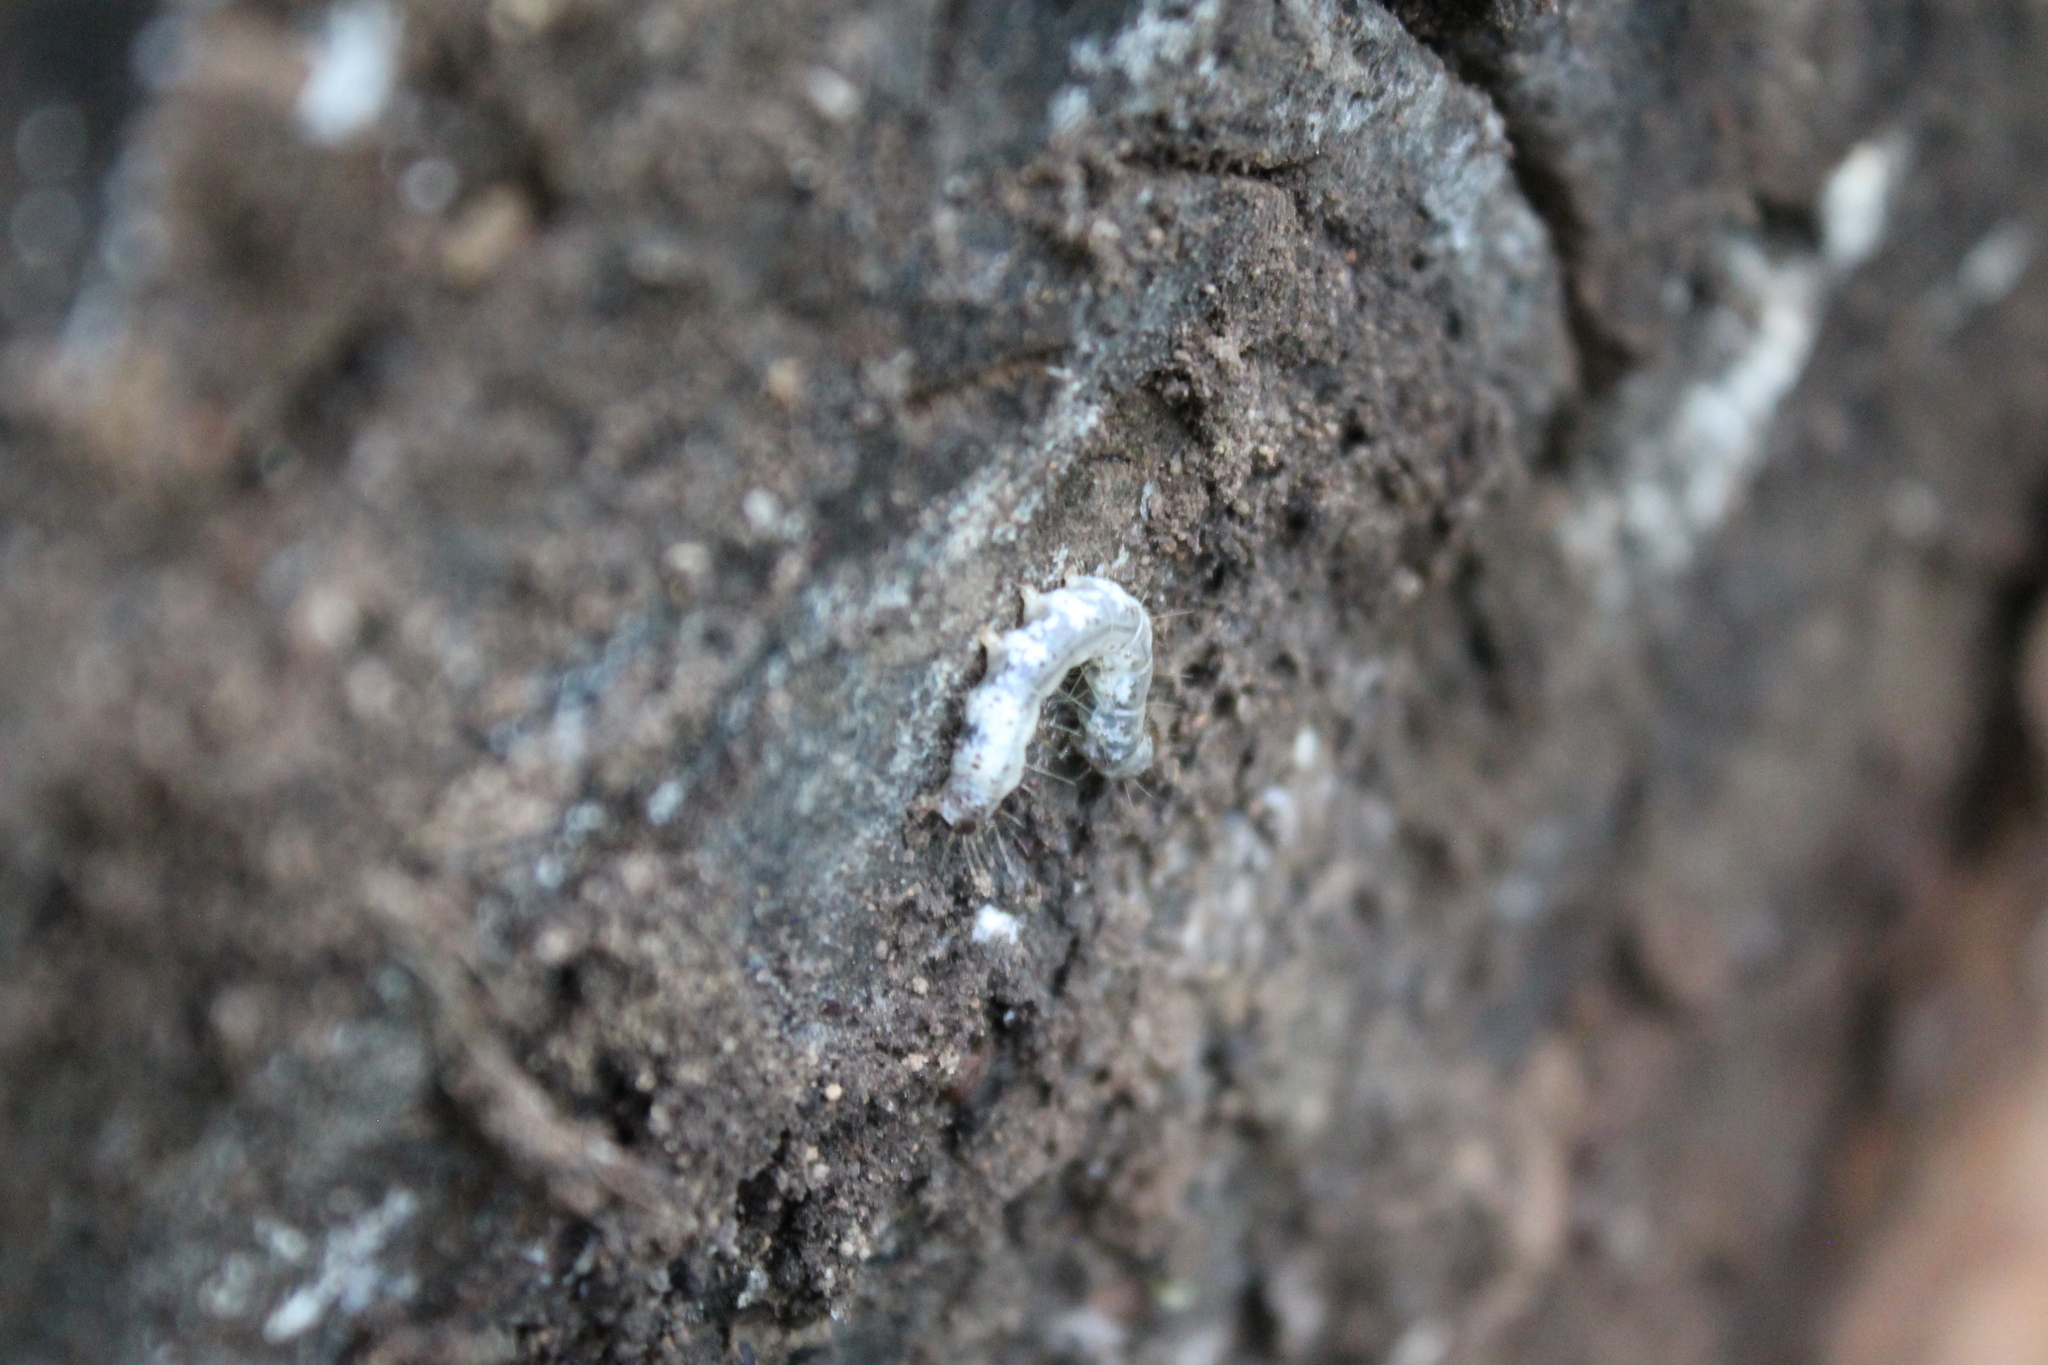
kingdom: Animalia
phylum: Arthropoda
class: Insecta
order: Lepidoptera
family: Erebidae
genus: Scolecocampa
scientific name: Scolecocampa liburna
